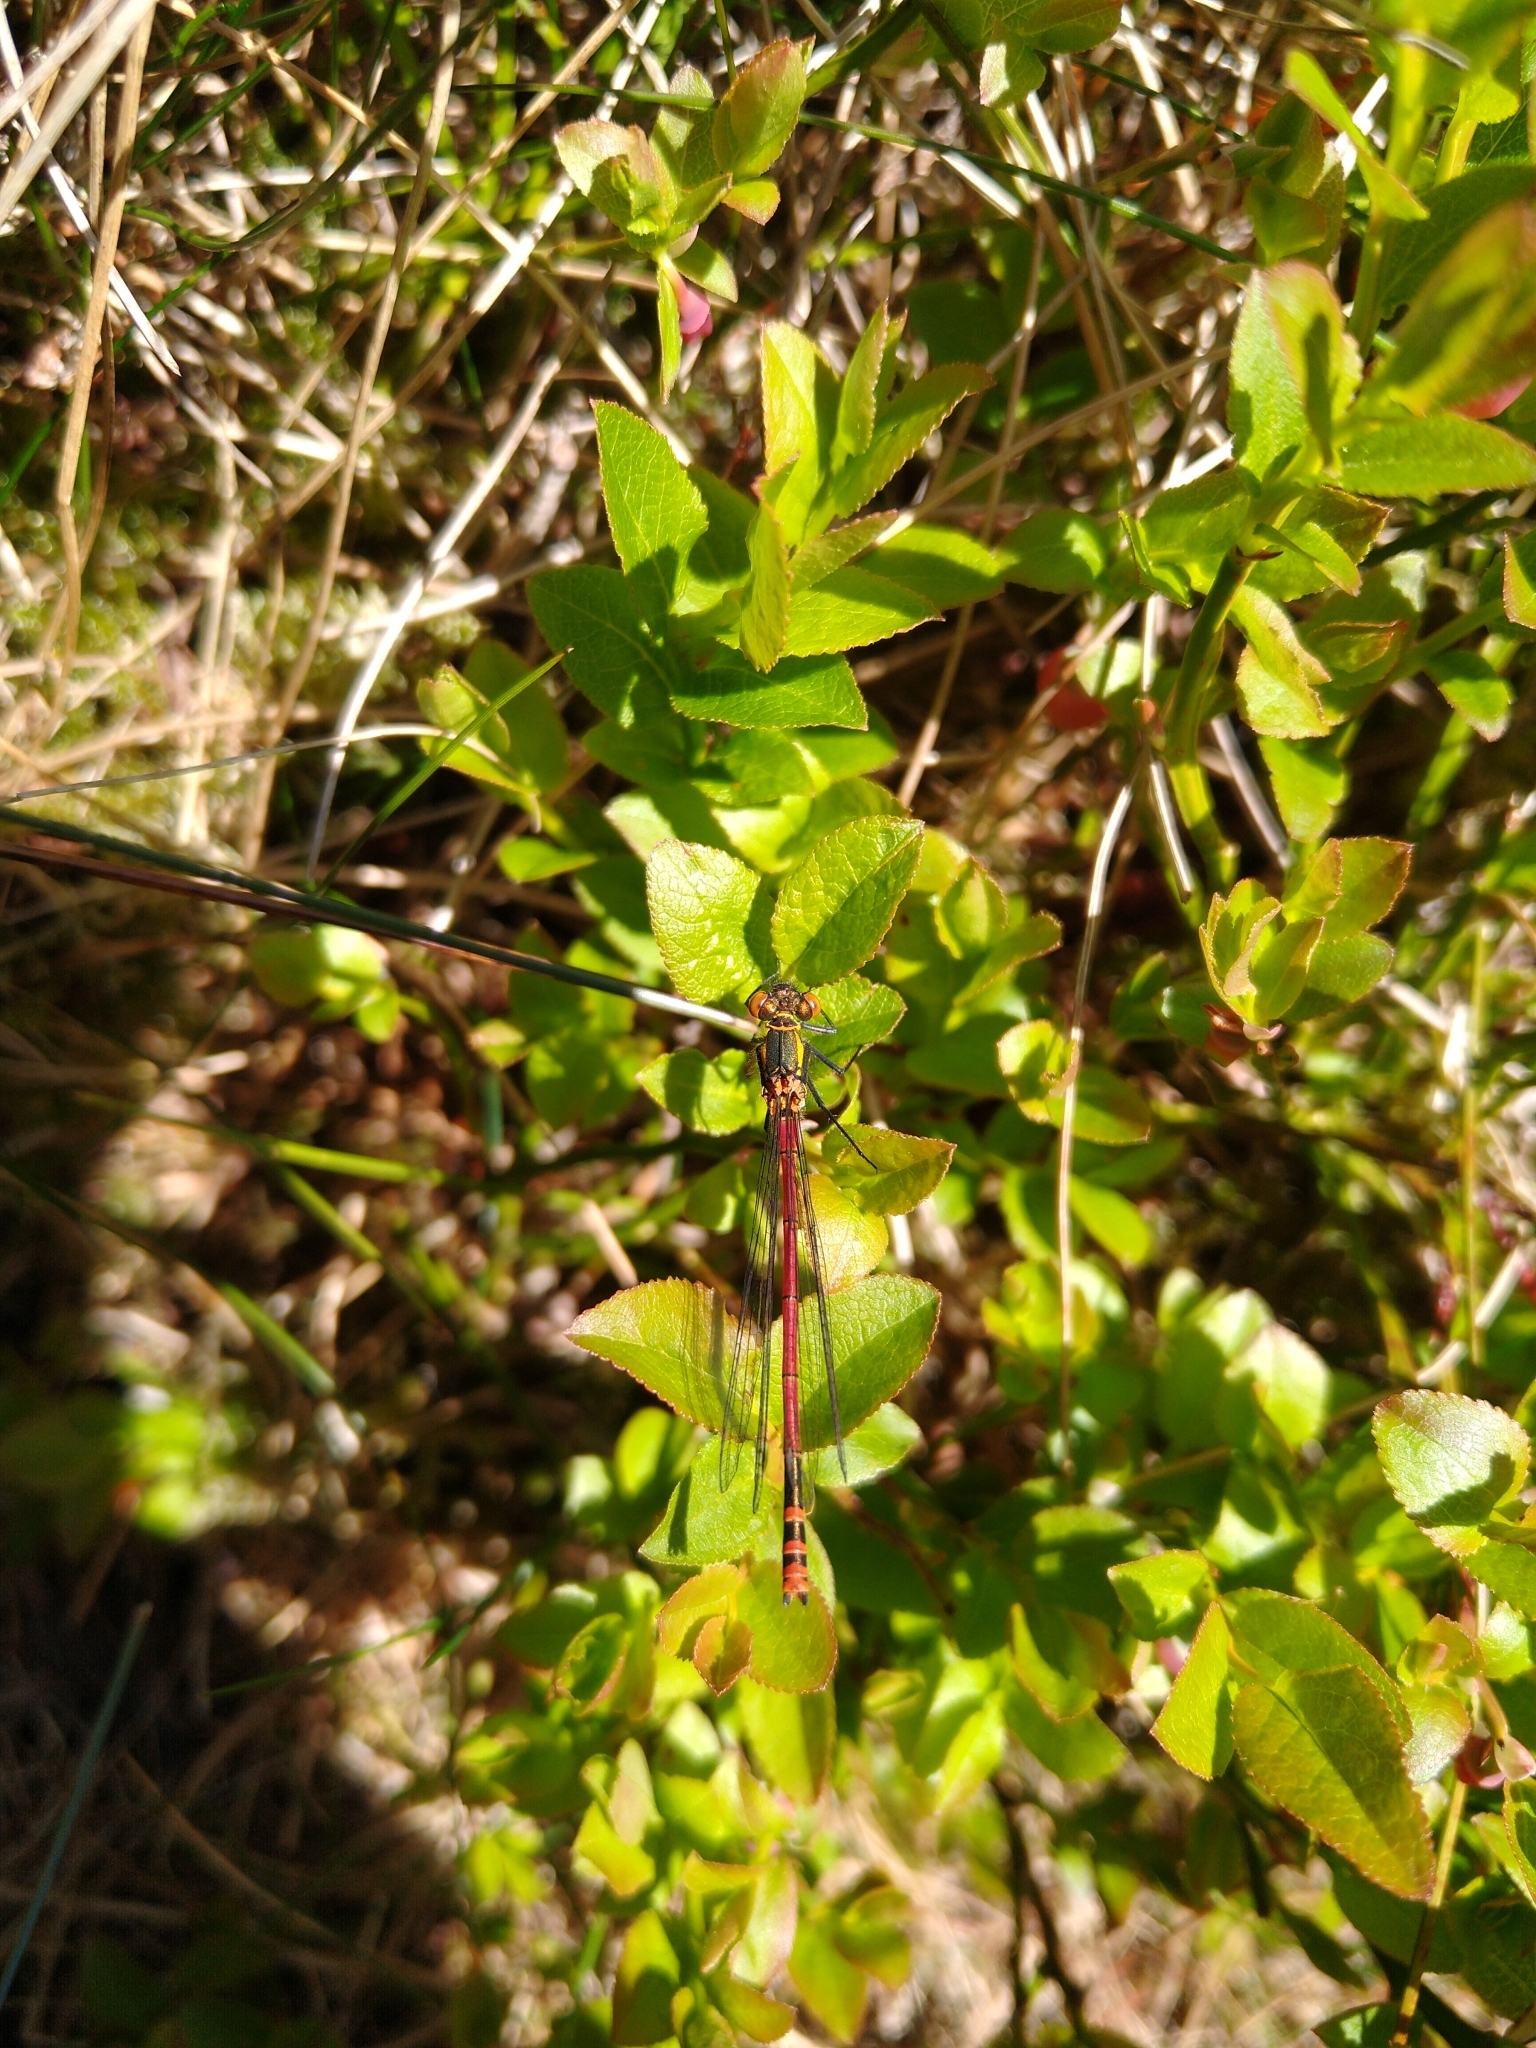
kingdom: Animalia
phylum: Arthropoda
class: Insecta
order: Odonata
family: Coenagrionidae
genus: Pyrrhosoma
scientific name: Pyrrhosoma nymphula
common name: Large red damsel
